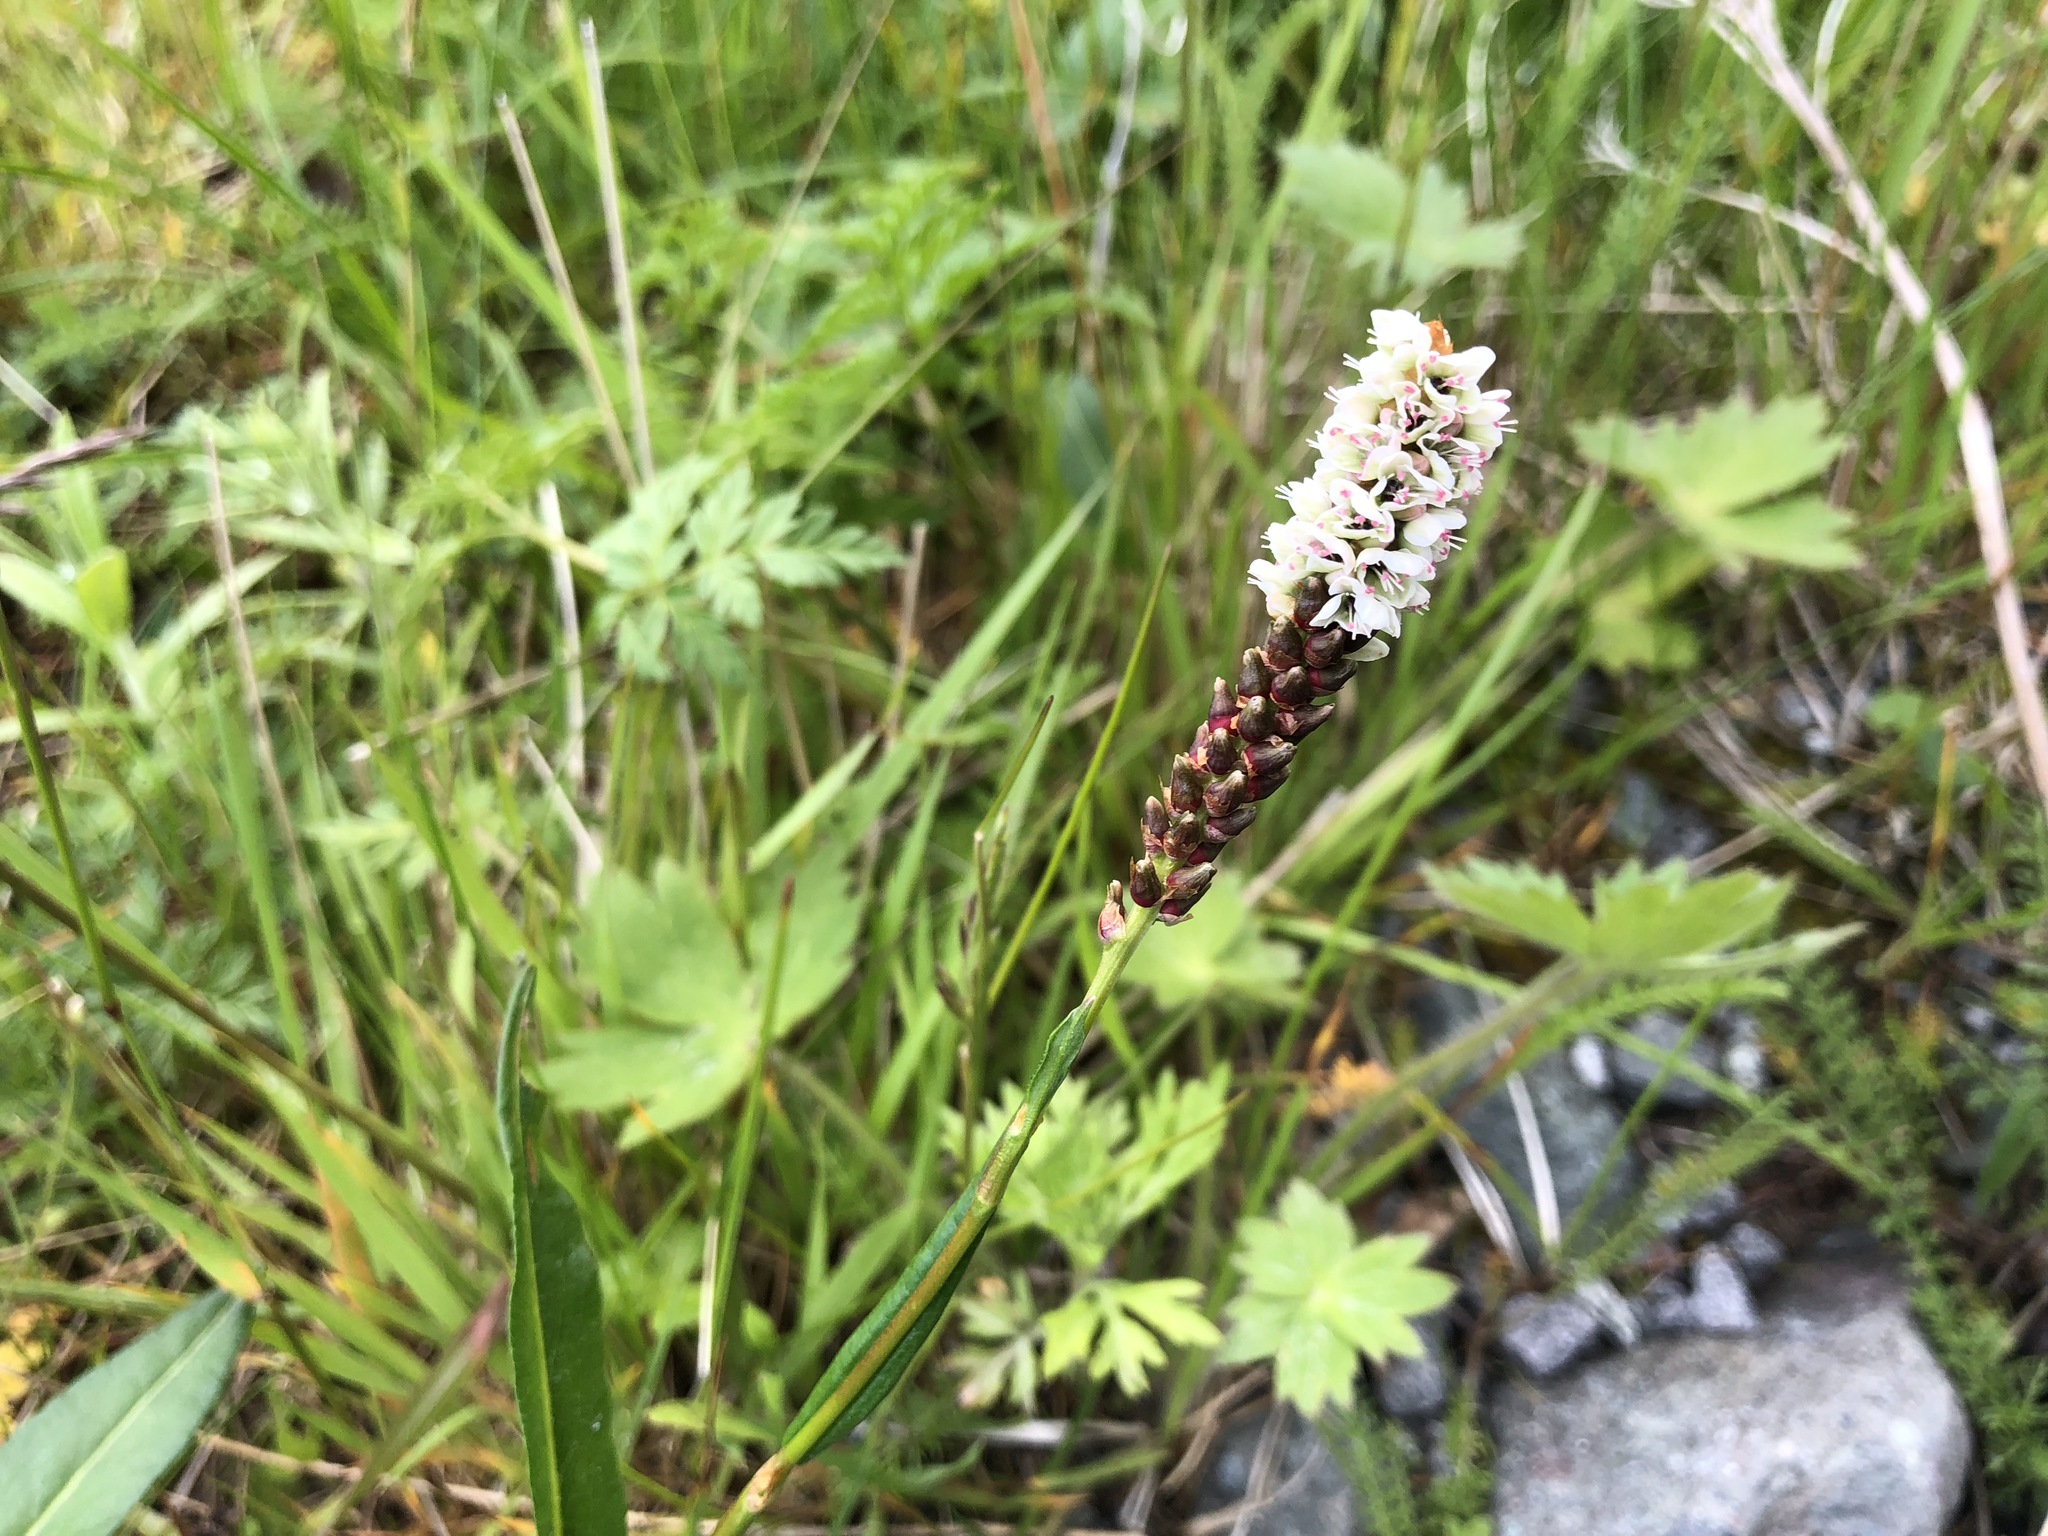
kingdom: Plantae
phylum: Tracheophyta
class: Magnoliopsida
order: Caryophyllales
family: Polygonaceae
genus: Bistorta
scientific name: Bistorta vivipara
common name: Alpine bistort
